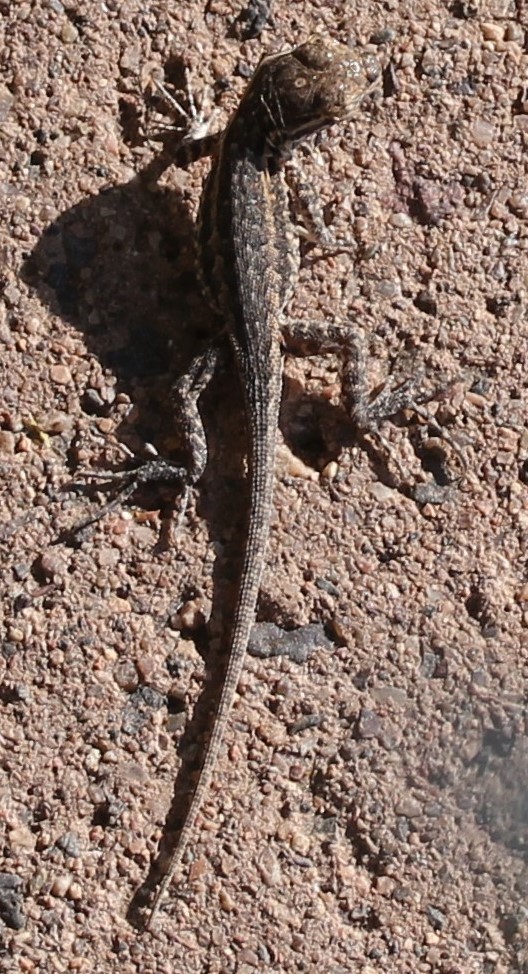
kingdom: Animalia
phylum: Chordata
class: Squamata
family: Phrynosomatidae
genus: Uta
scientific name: Uta stansburiana
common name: Side-blotched lizard
